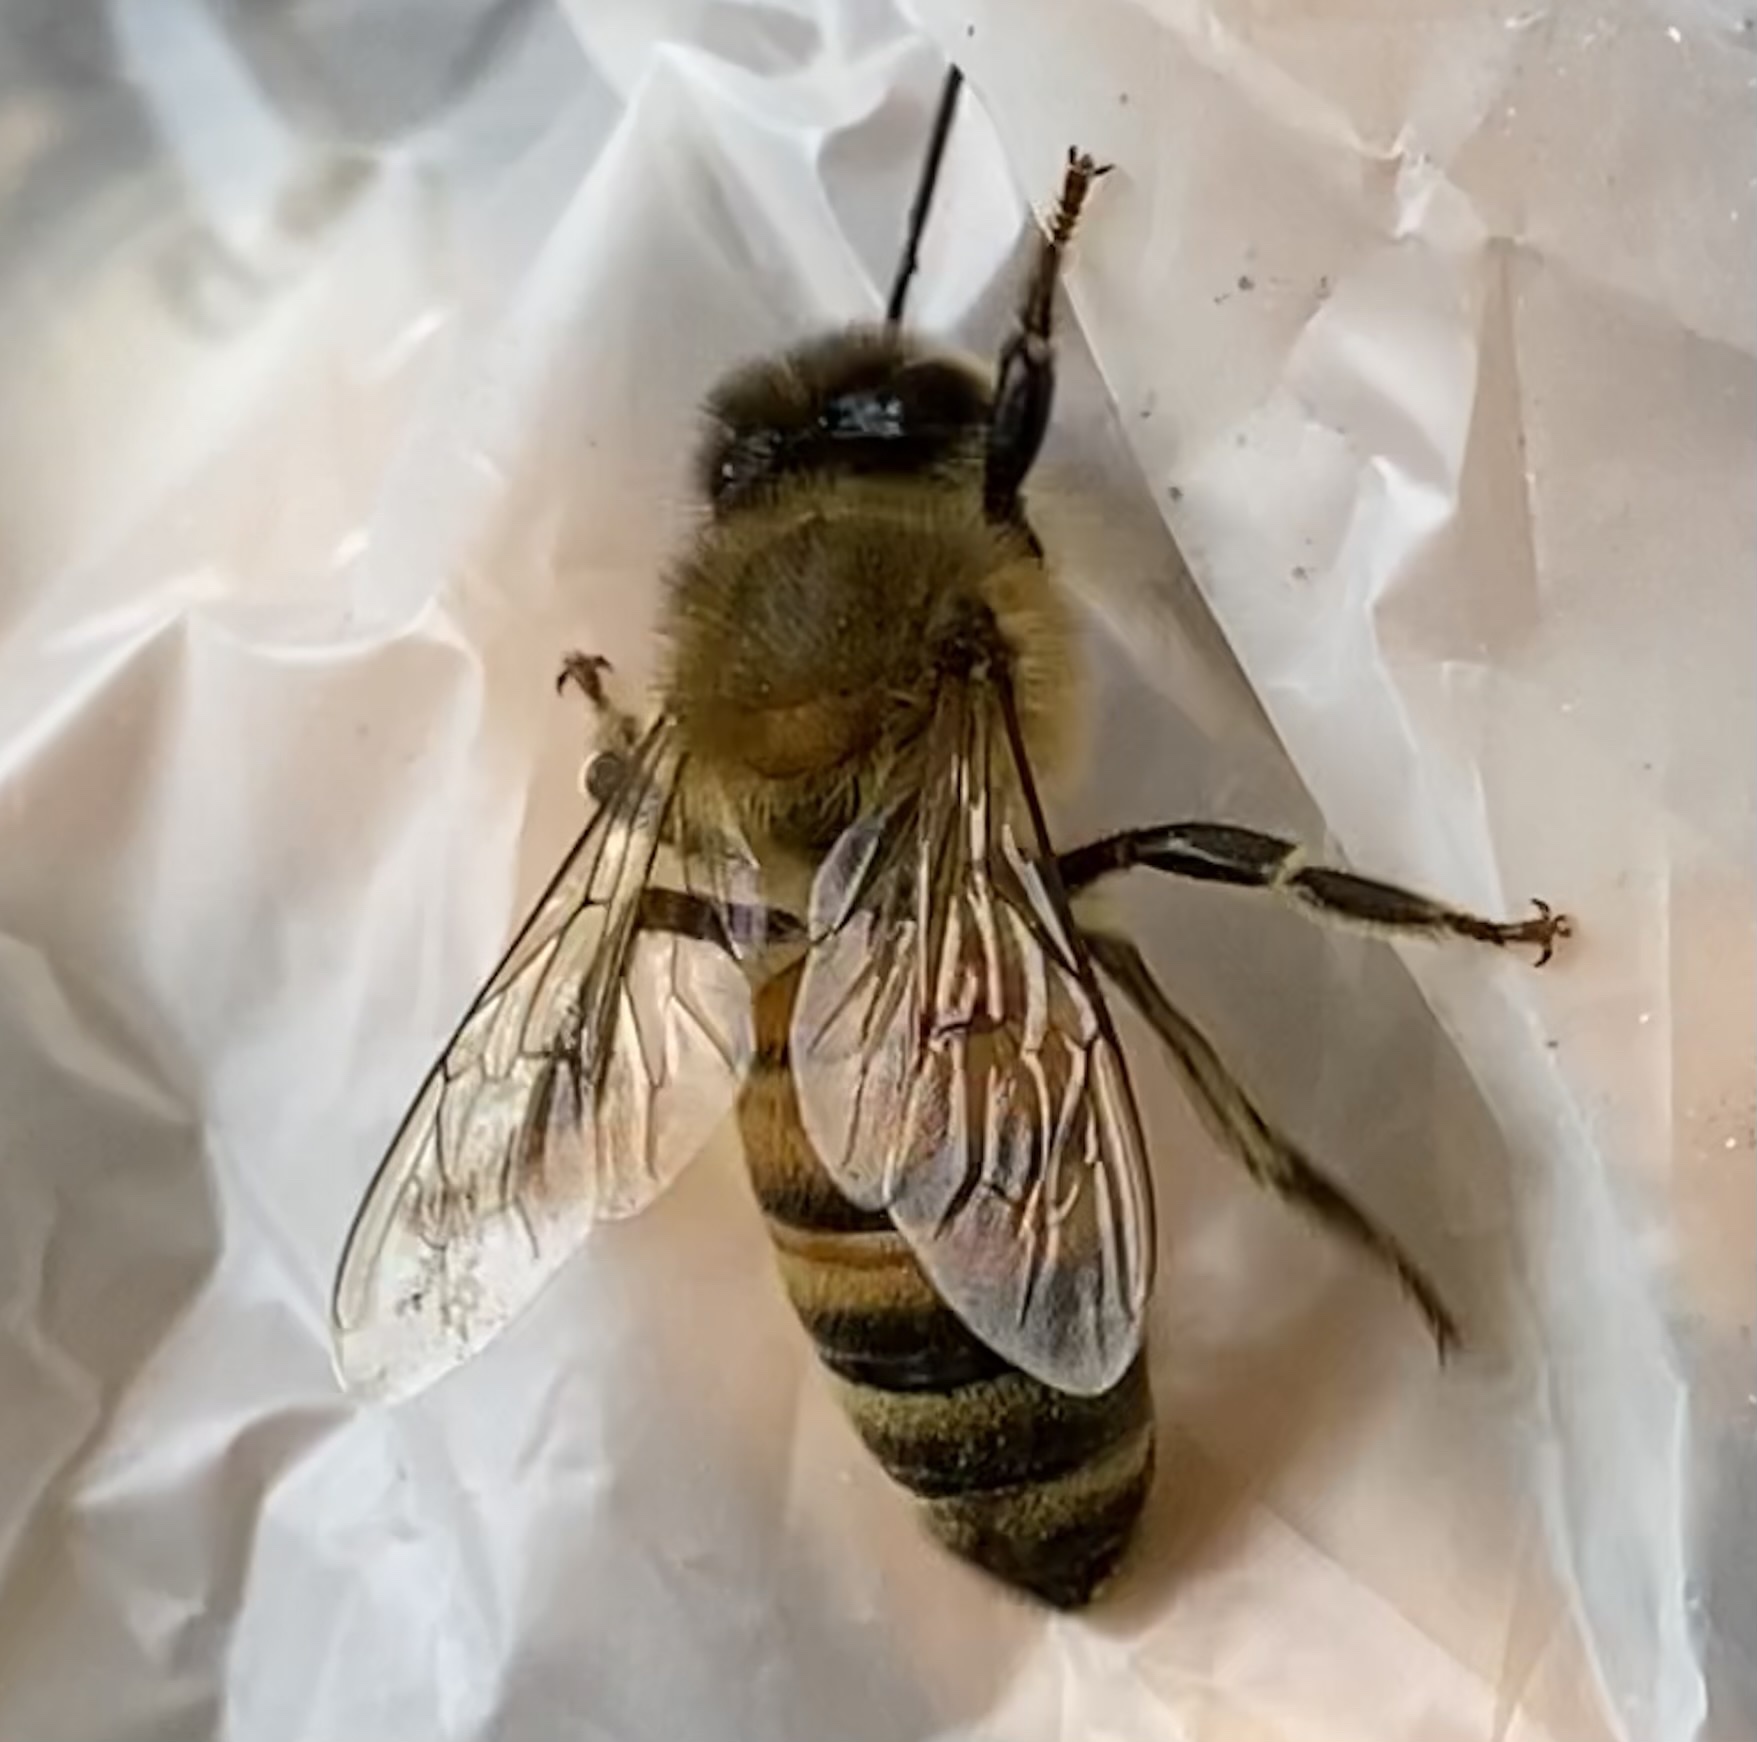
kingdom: Animalia
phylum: Arthropoda
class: Insecta
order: Hymenoptera
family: Apidae
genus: Apis
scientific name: Apis mellifera
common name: Honey bee
